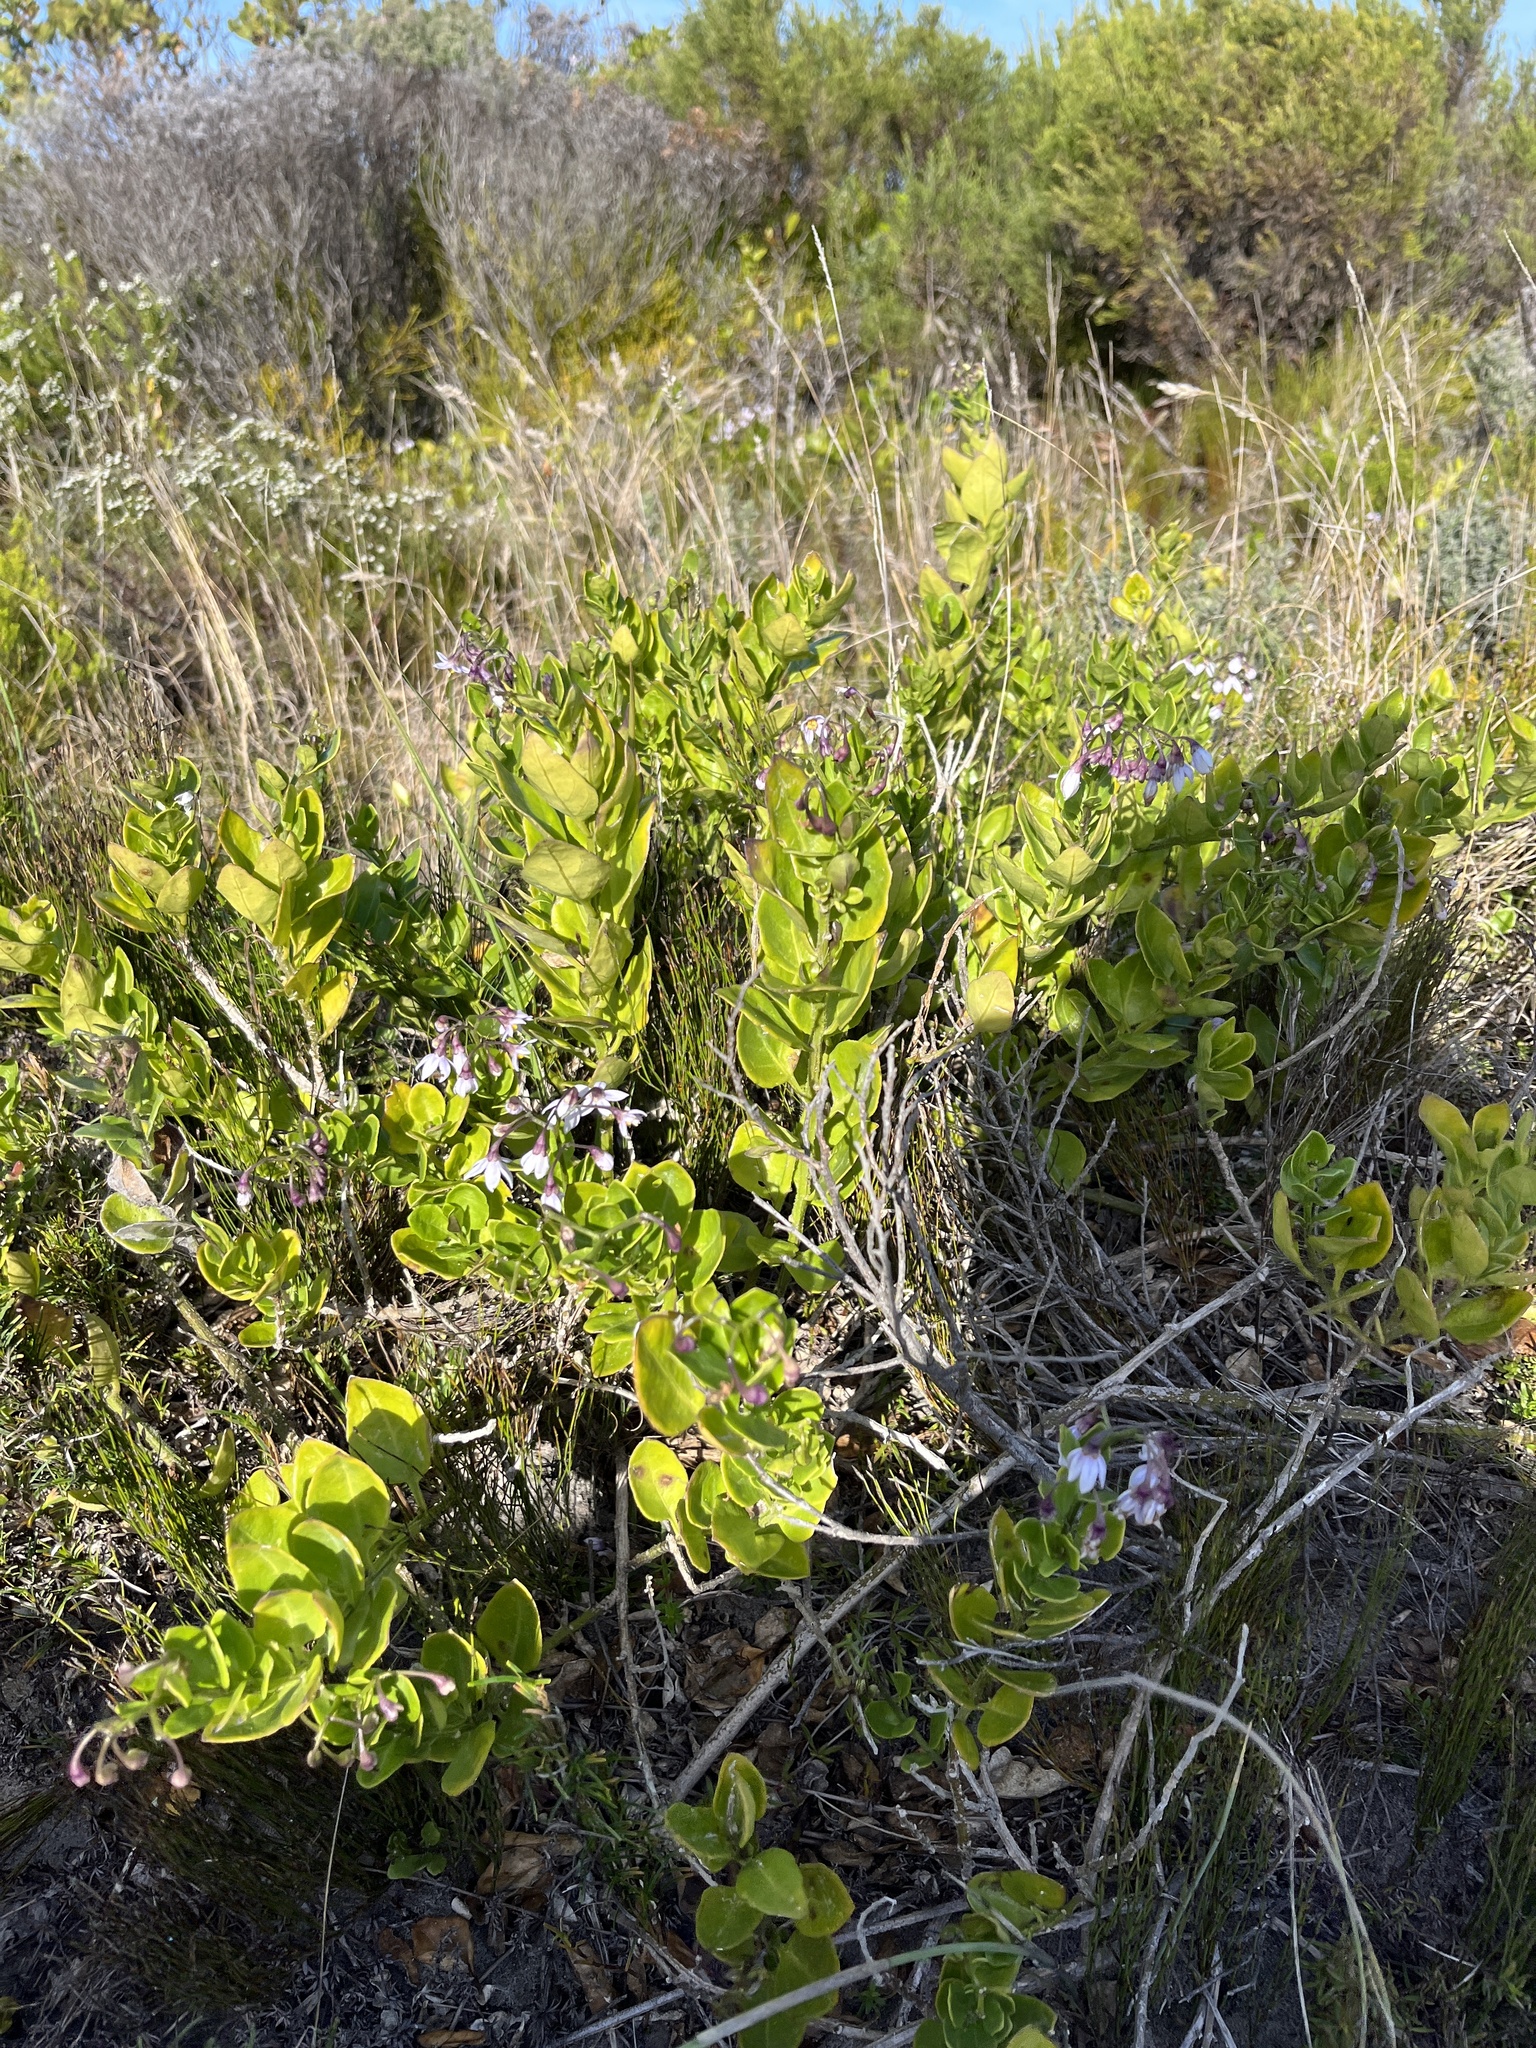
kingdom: Plantae
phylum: Tracheophyta
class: Magnoliopsida
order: Solanales
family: Solanaceae
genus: Solanum
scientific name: Solanum africanum
